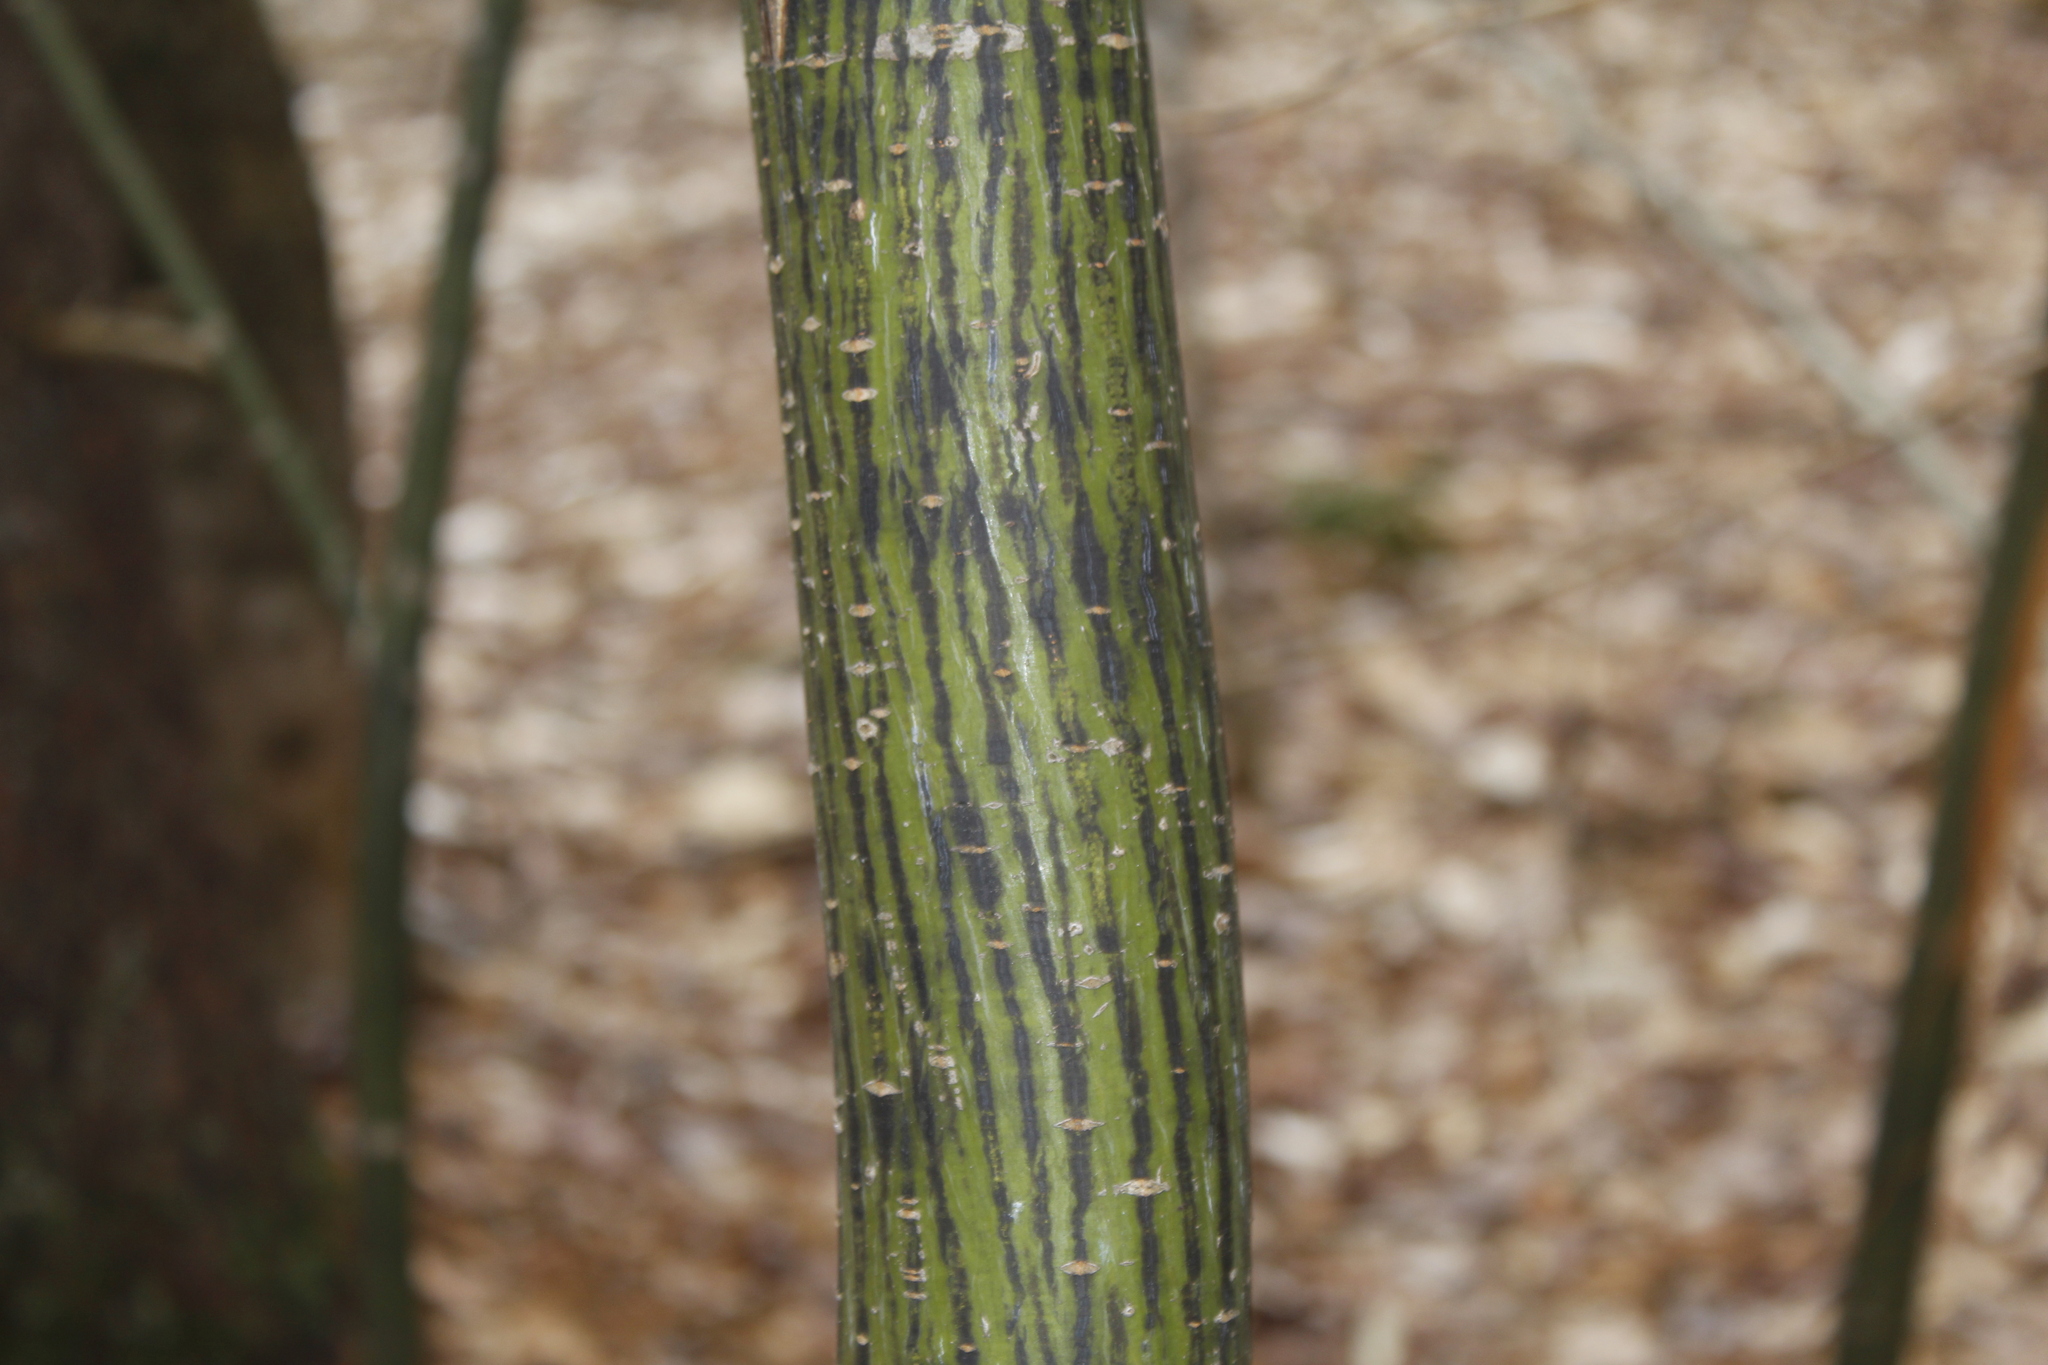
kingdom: Plantae
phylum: Tracheophyta
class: Magnoliopsida
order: Sapindales
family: Sapindaceae
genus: Acer
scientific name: Acer pensylvanicum
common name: Moosewood
